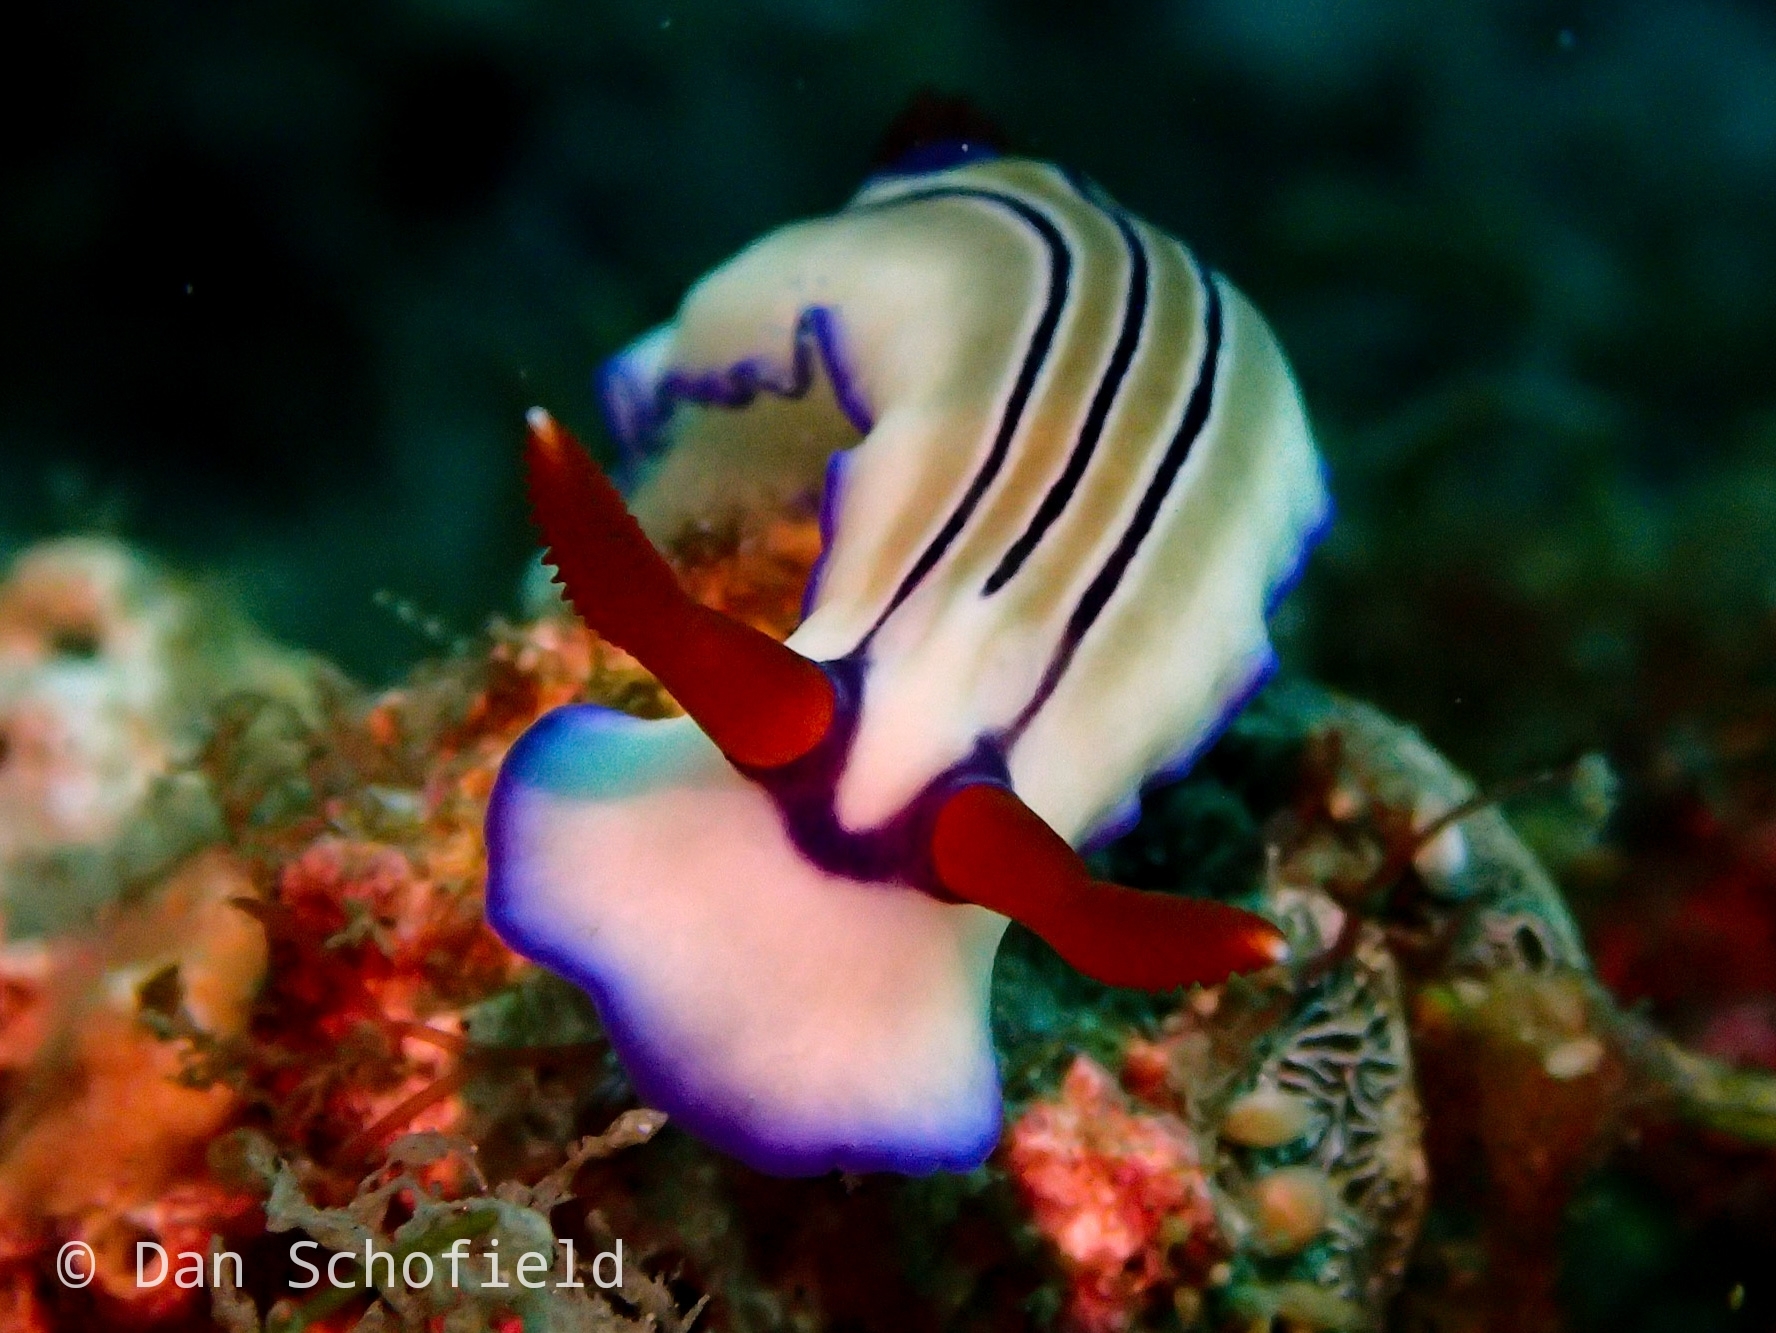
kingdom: Animalia
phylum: Mollusca
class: Gastropoda
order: Nudibranchia
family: Chromodorididae
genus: Hypselodoris
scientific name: Hypselodoris emma
